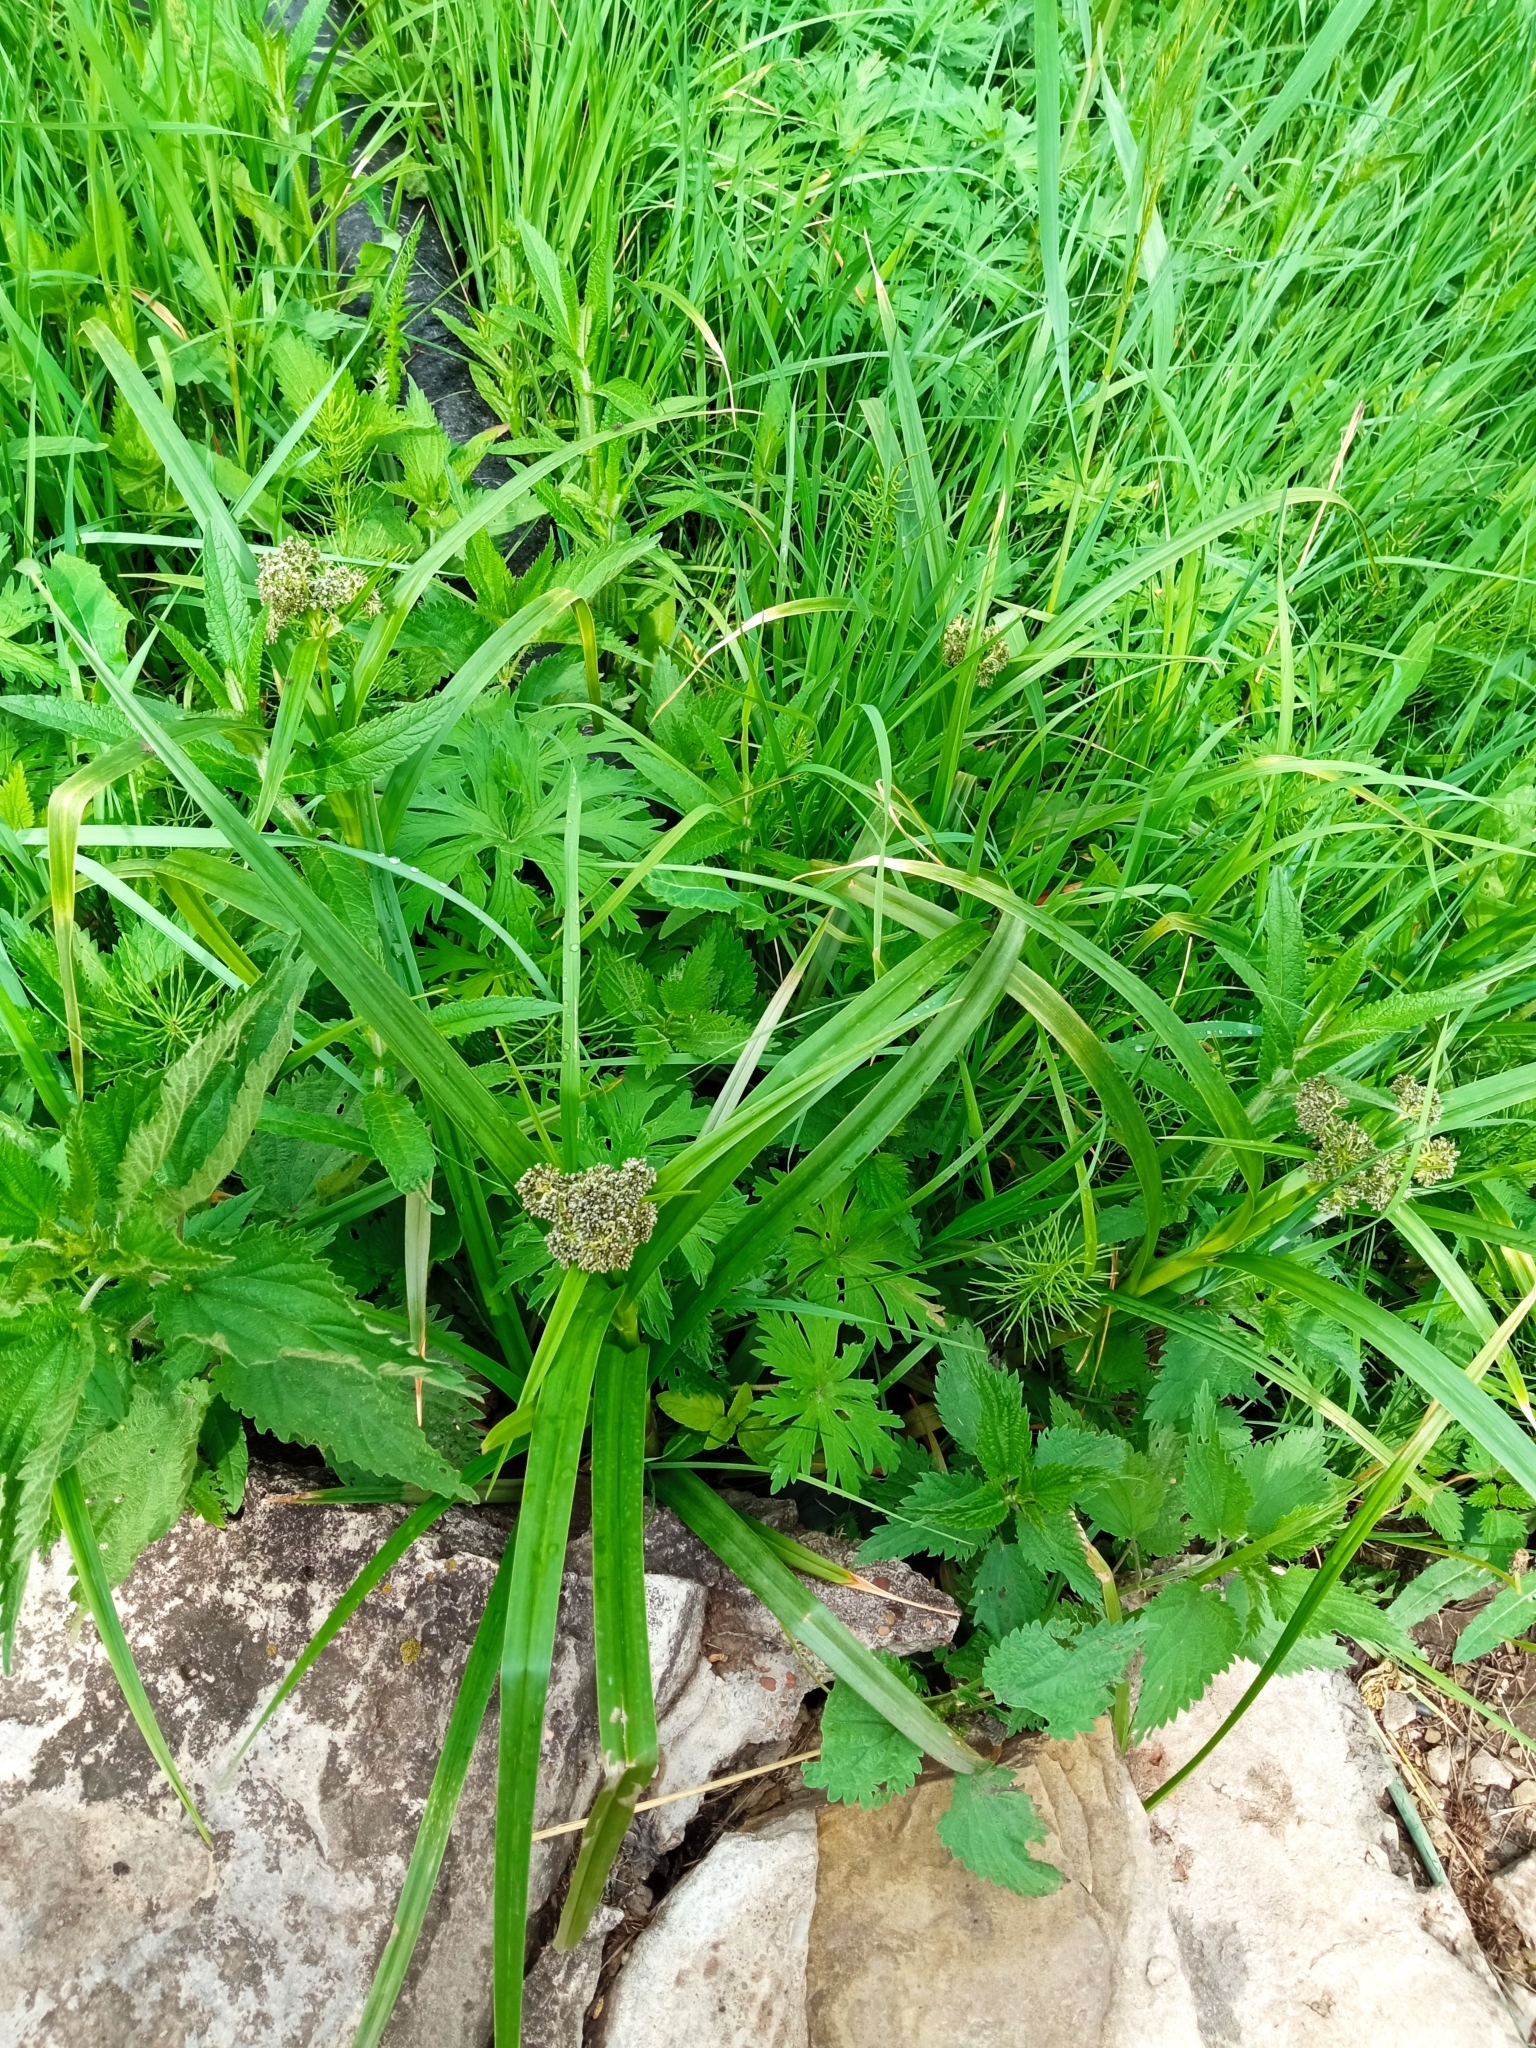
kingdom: Plantae
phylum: Tracheophyta
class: Liliopsida
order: Poales
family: Cyperaceae
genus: Scirpus
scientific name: Scirpus sylvaticus
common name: Wood club-rush
